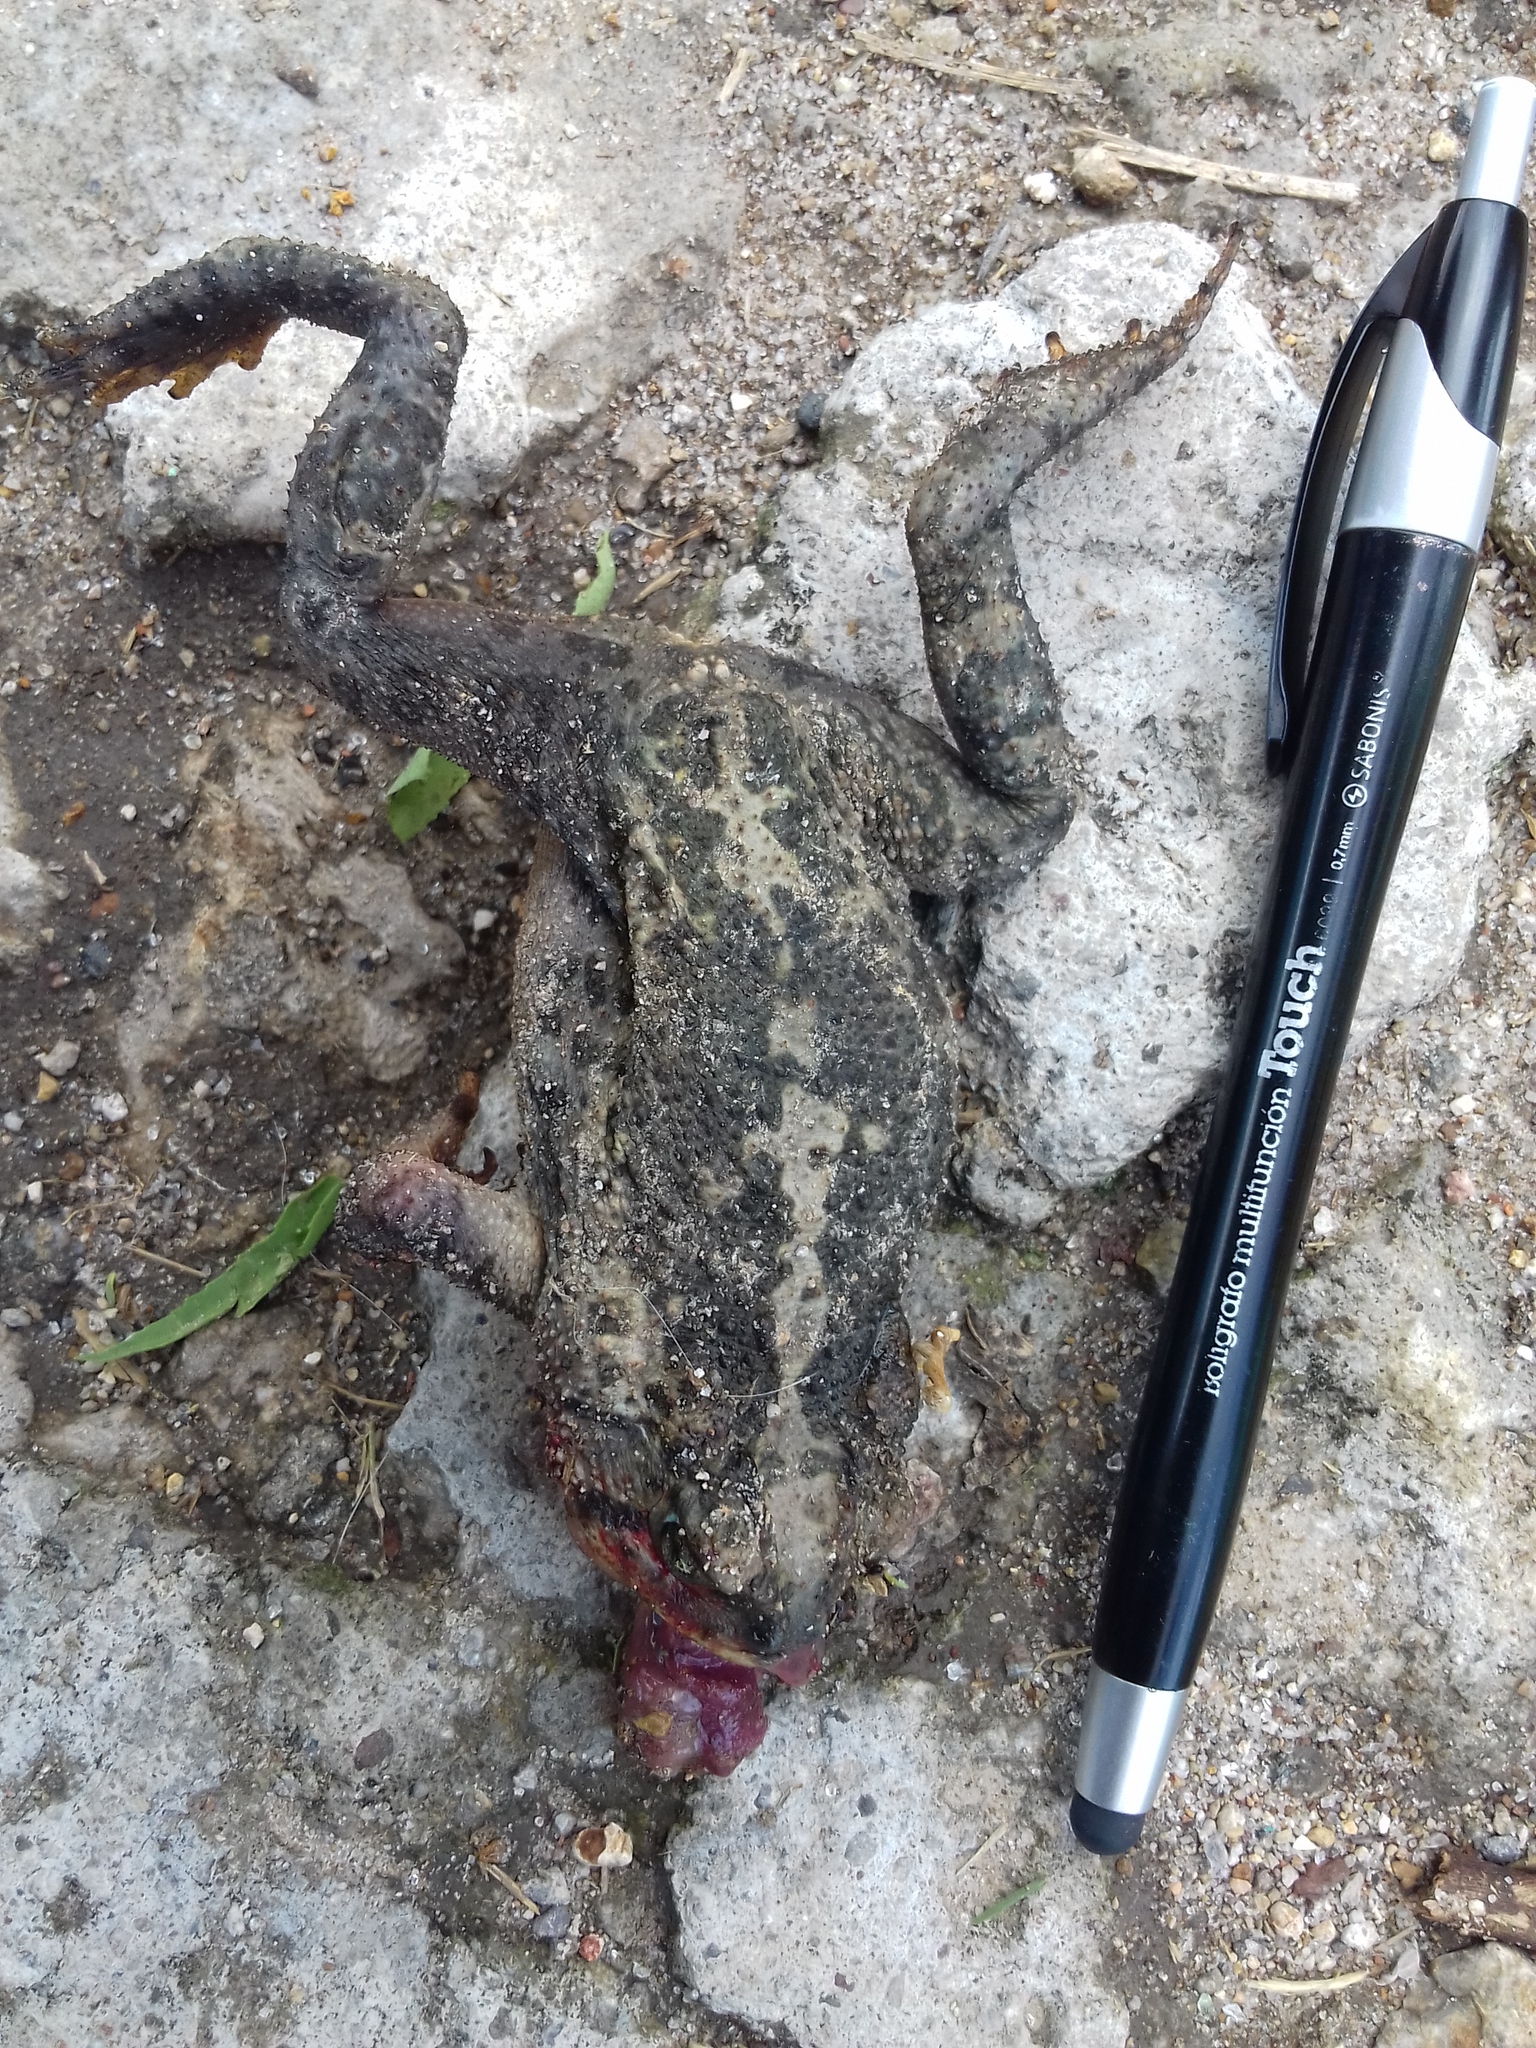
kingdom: Animalia
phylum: Chordata
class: Amphibia
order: Anura
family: Bufonidae
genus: Incilius
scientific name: Incilius occidentalis
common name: Pine toad
